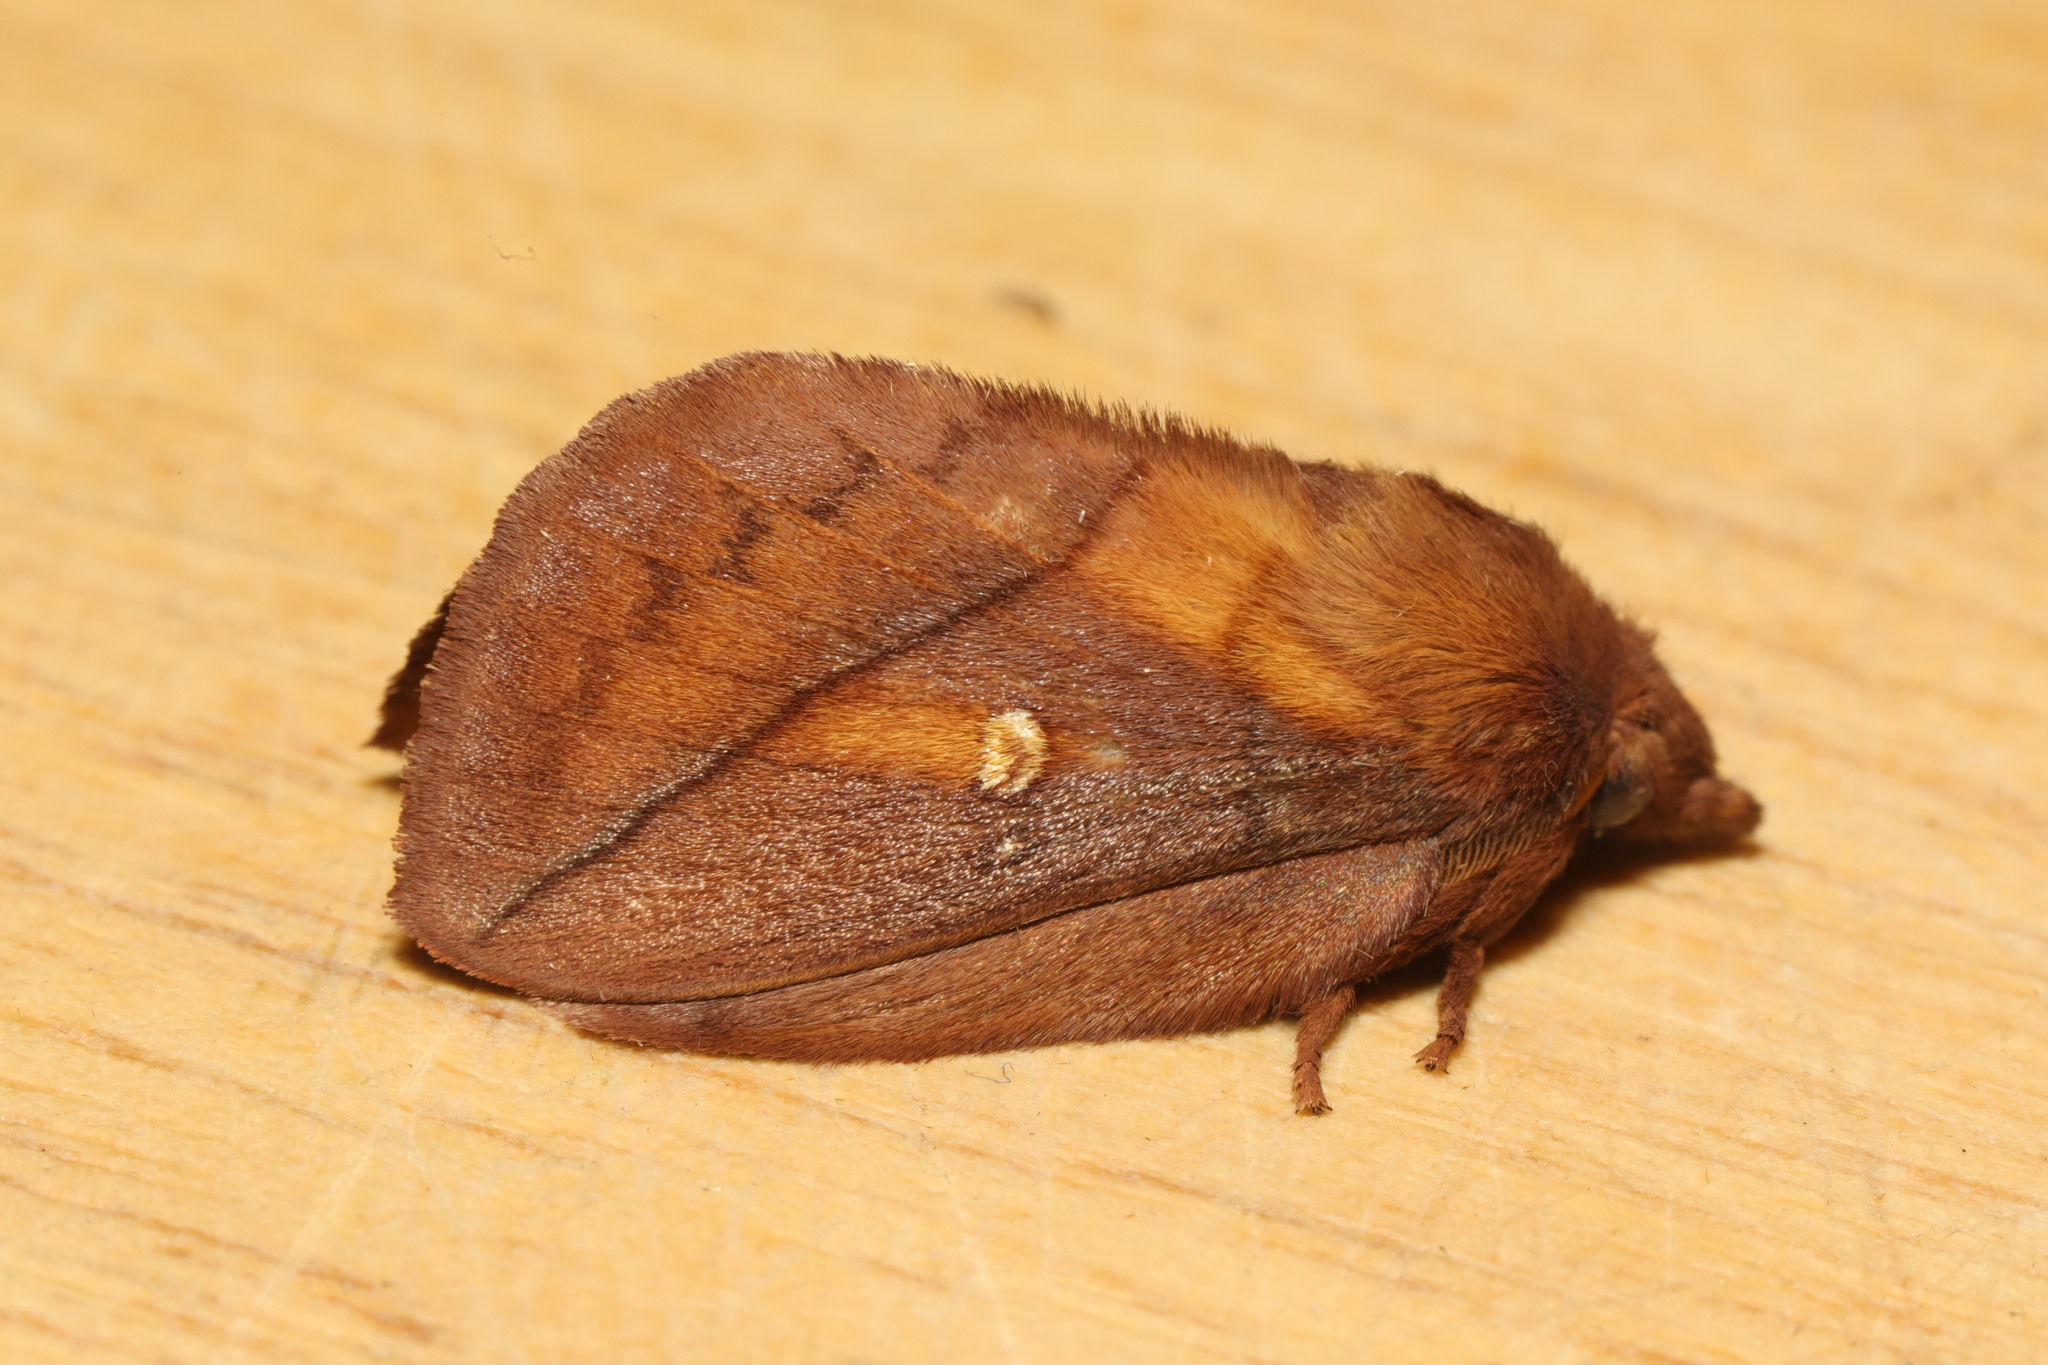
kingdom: Animalia
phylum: Arthropoda
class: Insecta
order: Lepidoptera
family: Lasiocampidae
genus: Euthrix
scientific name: Euthrix potatoria
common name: Drinker
